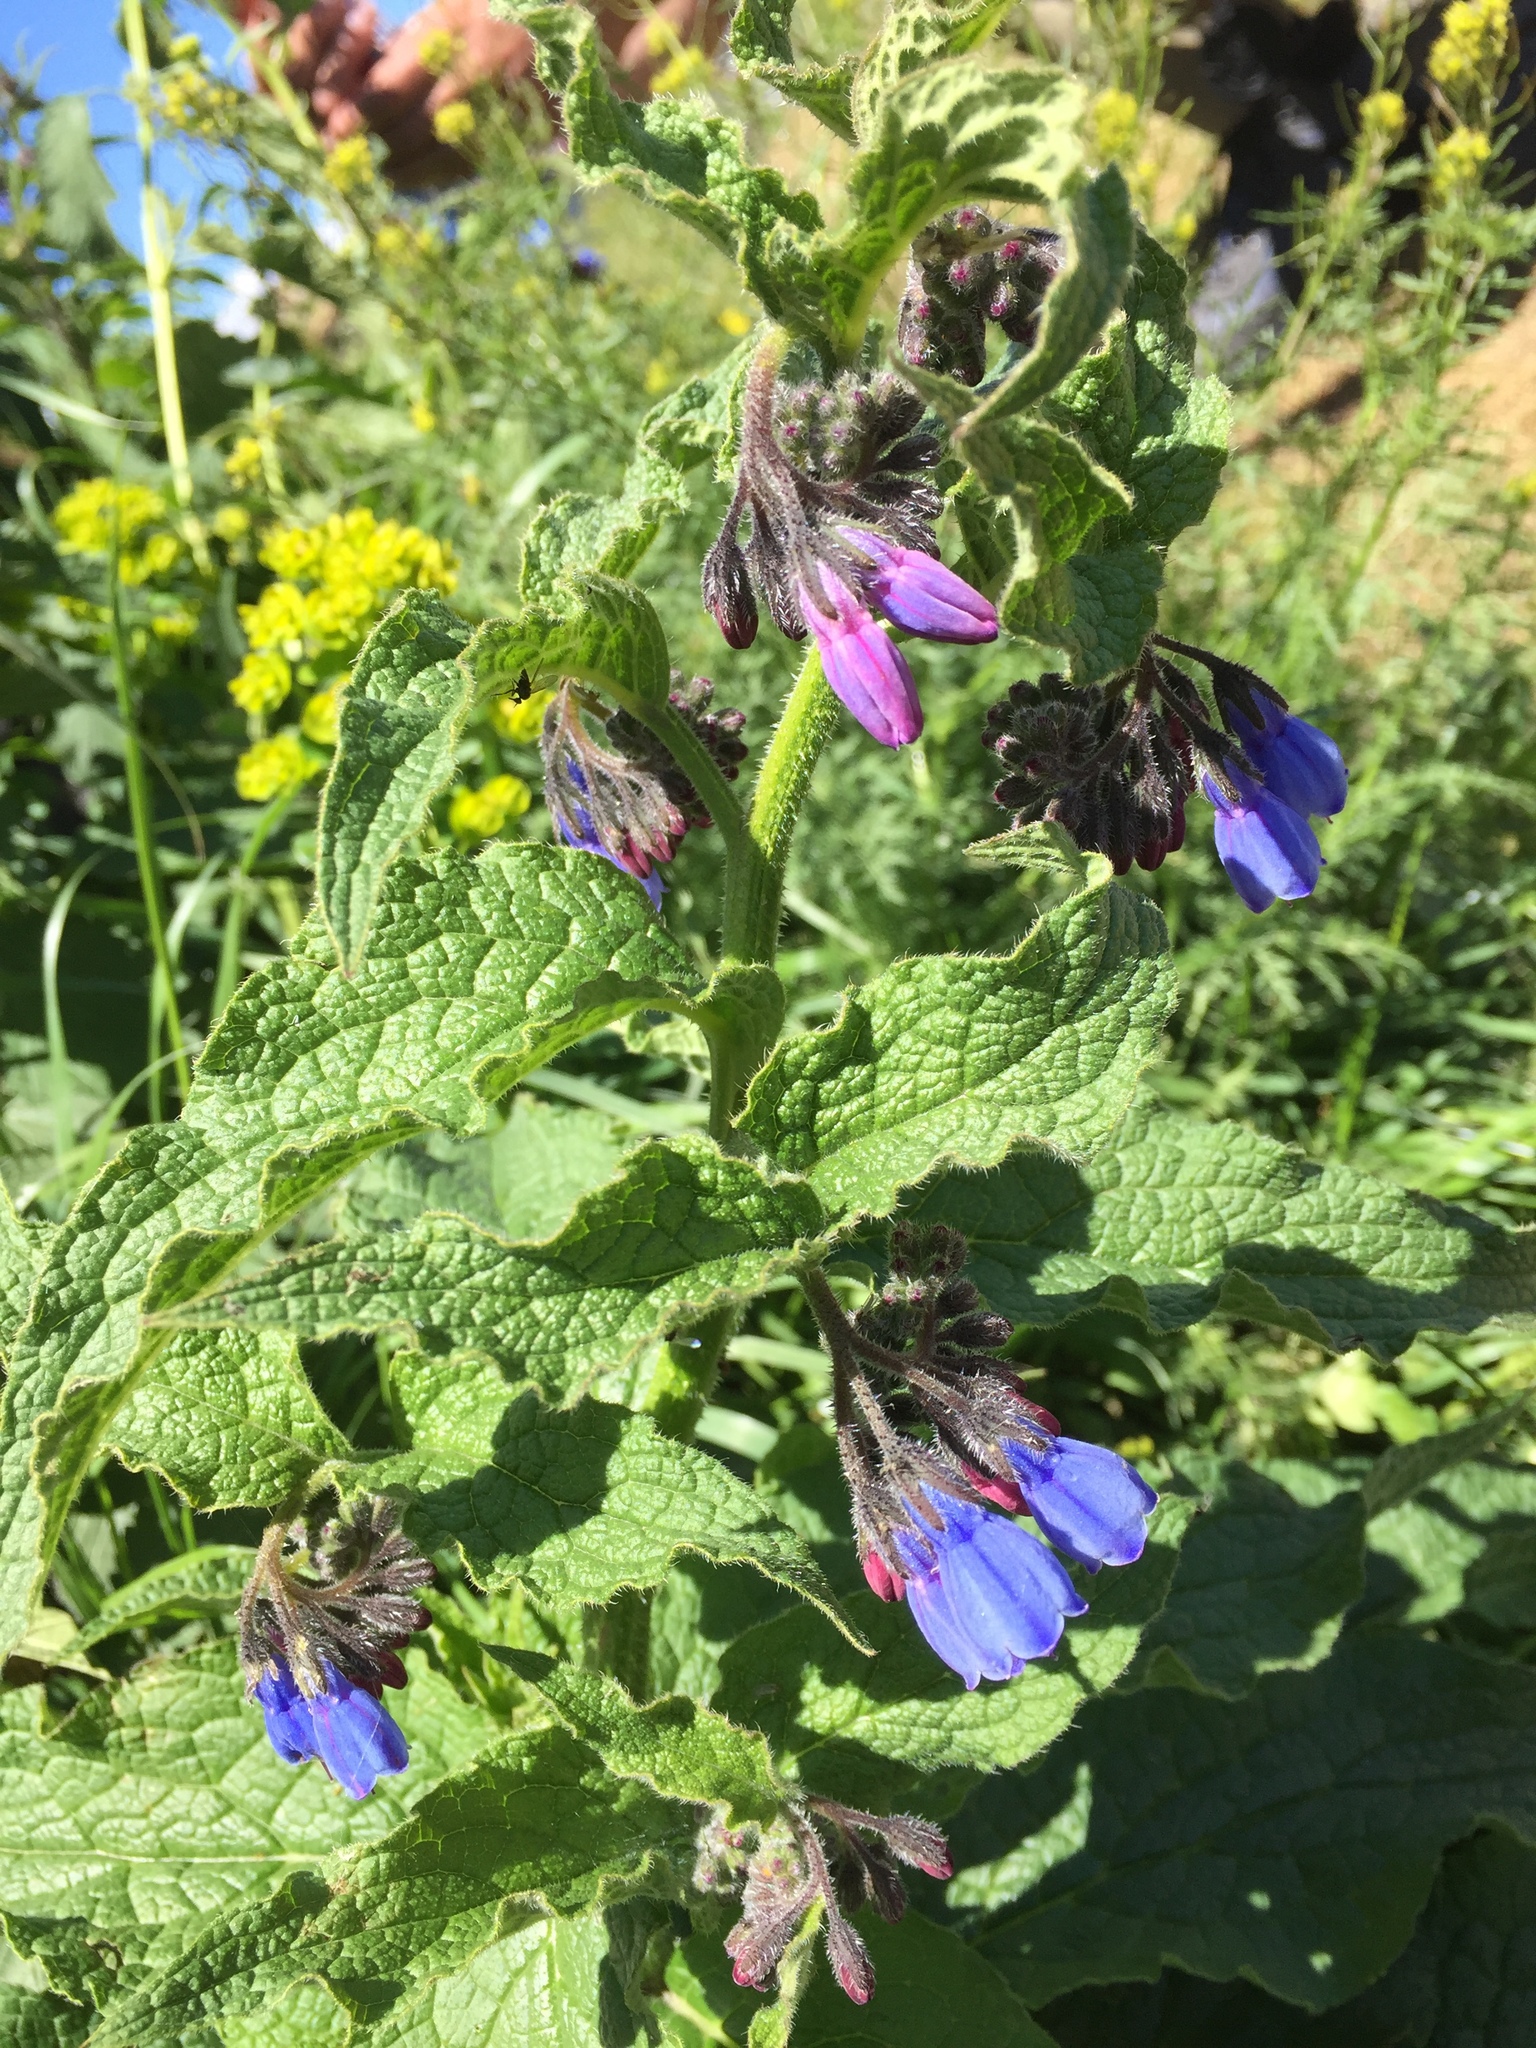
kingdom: Plantae
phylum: Tracheophyta
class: Magnoliopsida
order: Boraginales
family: Boraginaceae
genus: Symphytum
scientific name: Symphytum asperum
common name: Prickly comfrey
